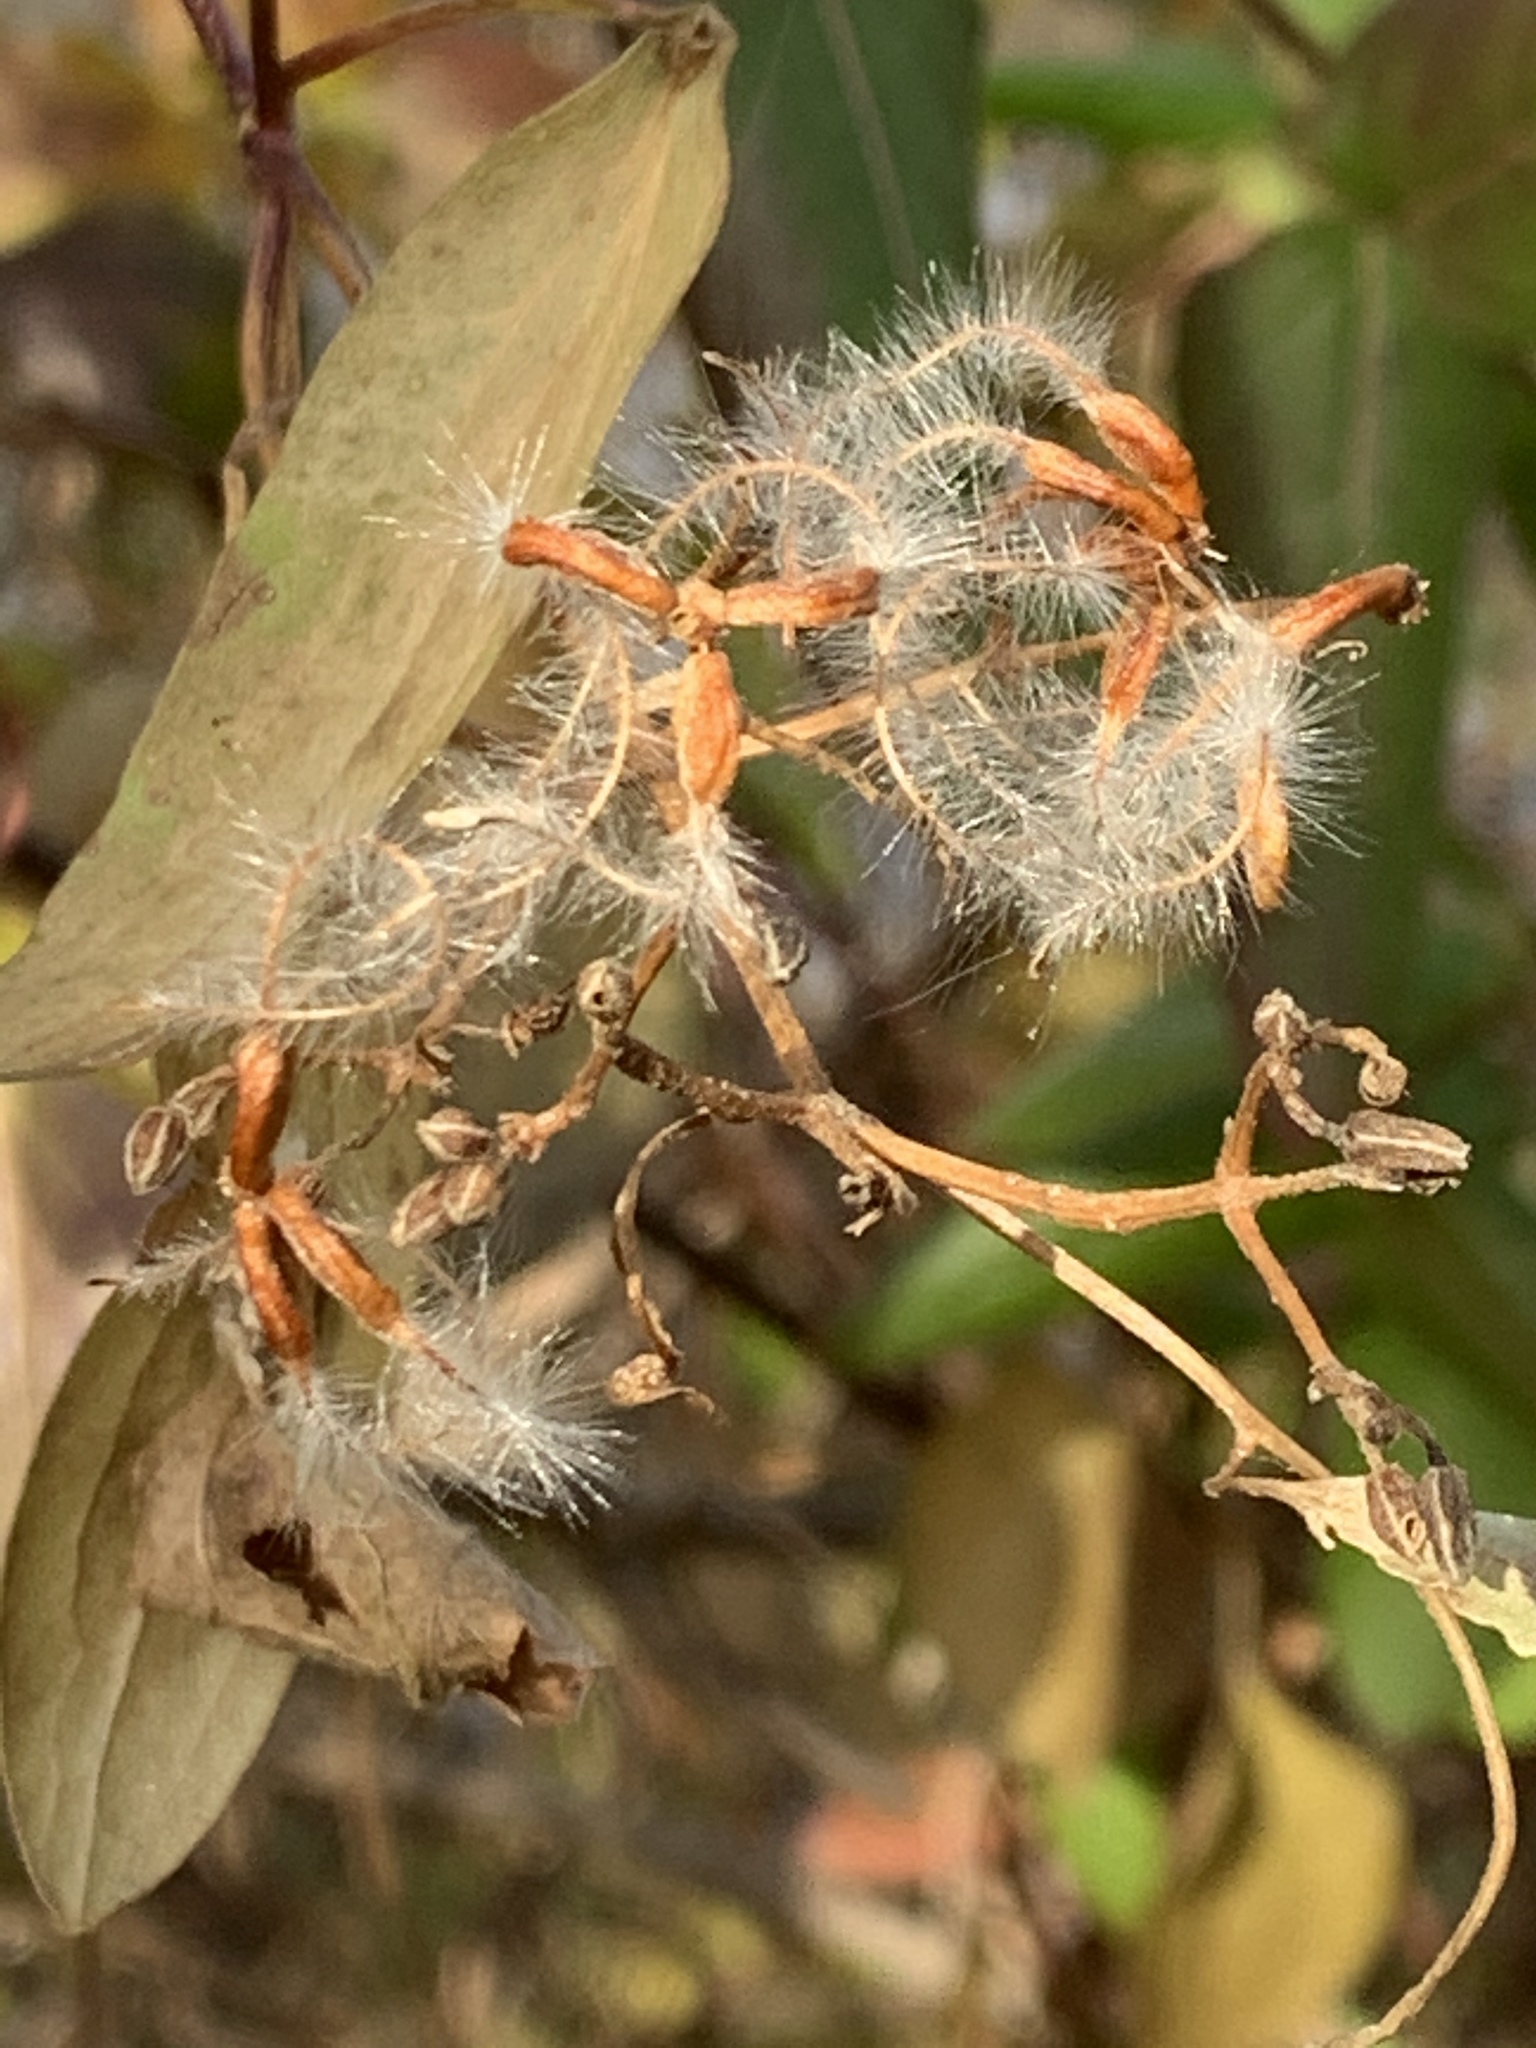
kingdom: Plantae
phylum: Tracheophyta
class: Magnoliopsida
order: Ranunculales
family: Ranunculaceae
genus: Clematis
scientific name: Clematis terniflora
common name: Sweet autumn clematis
